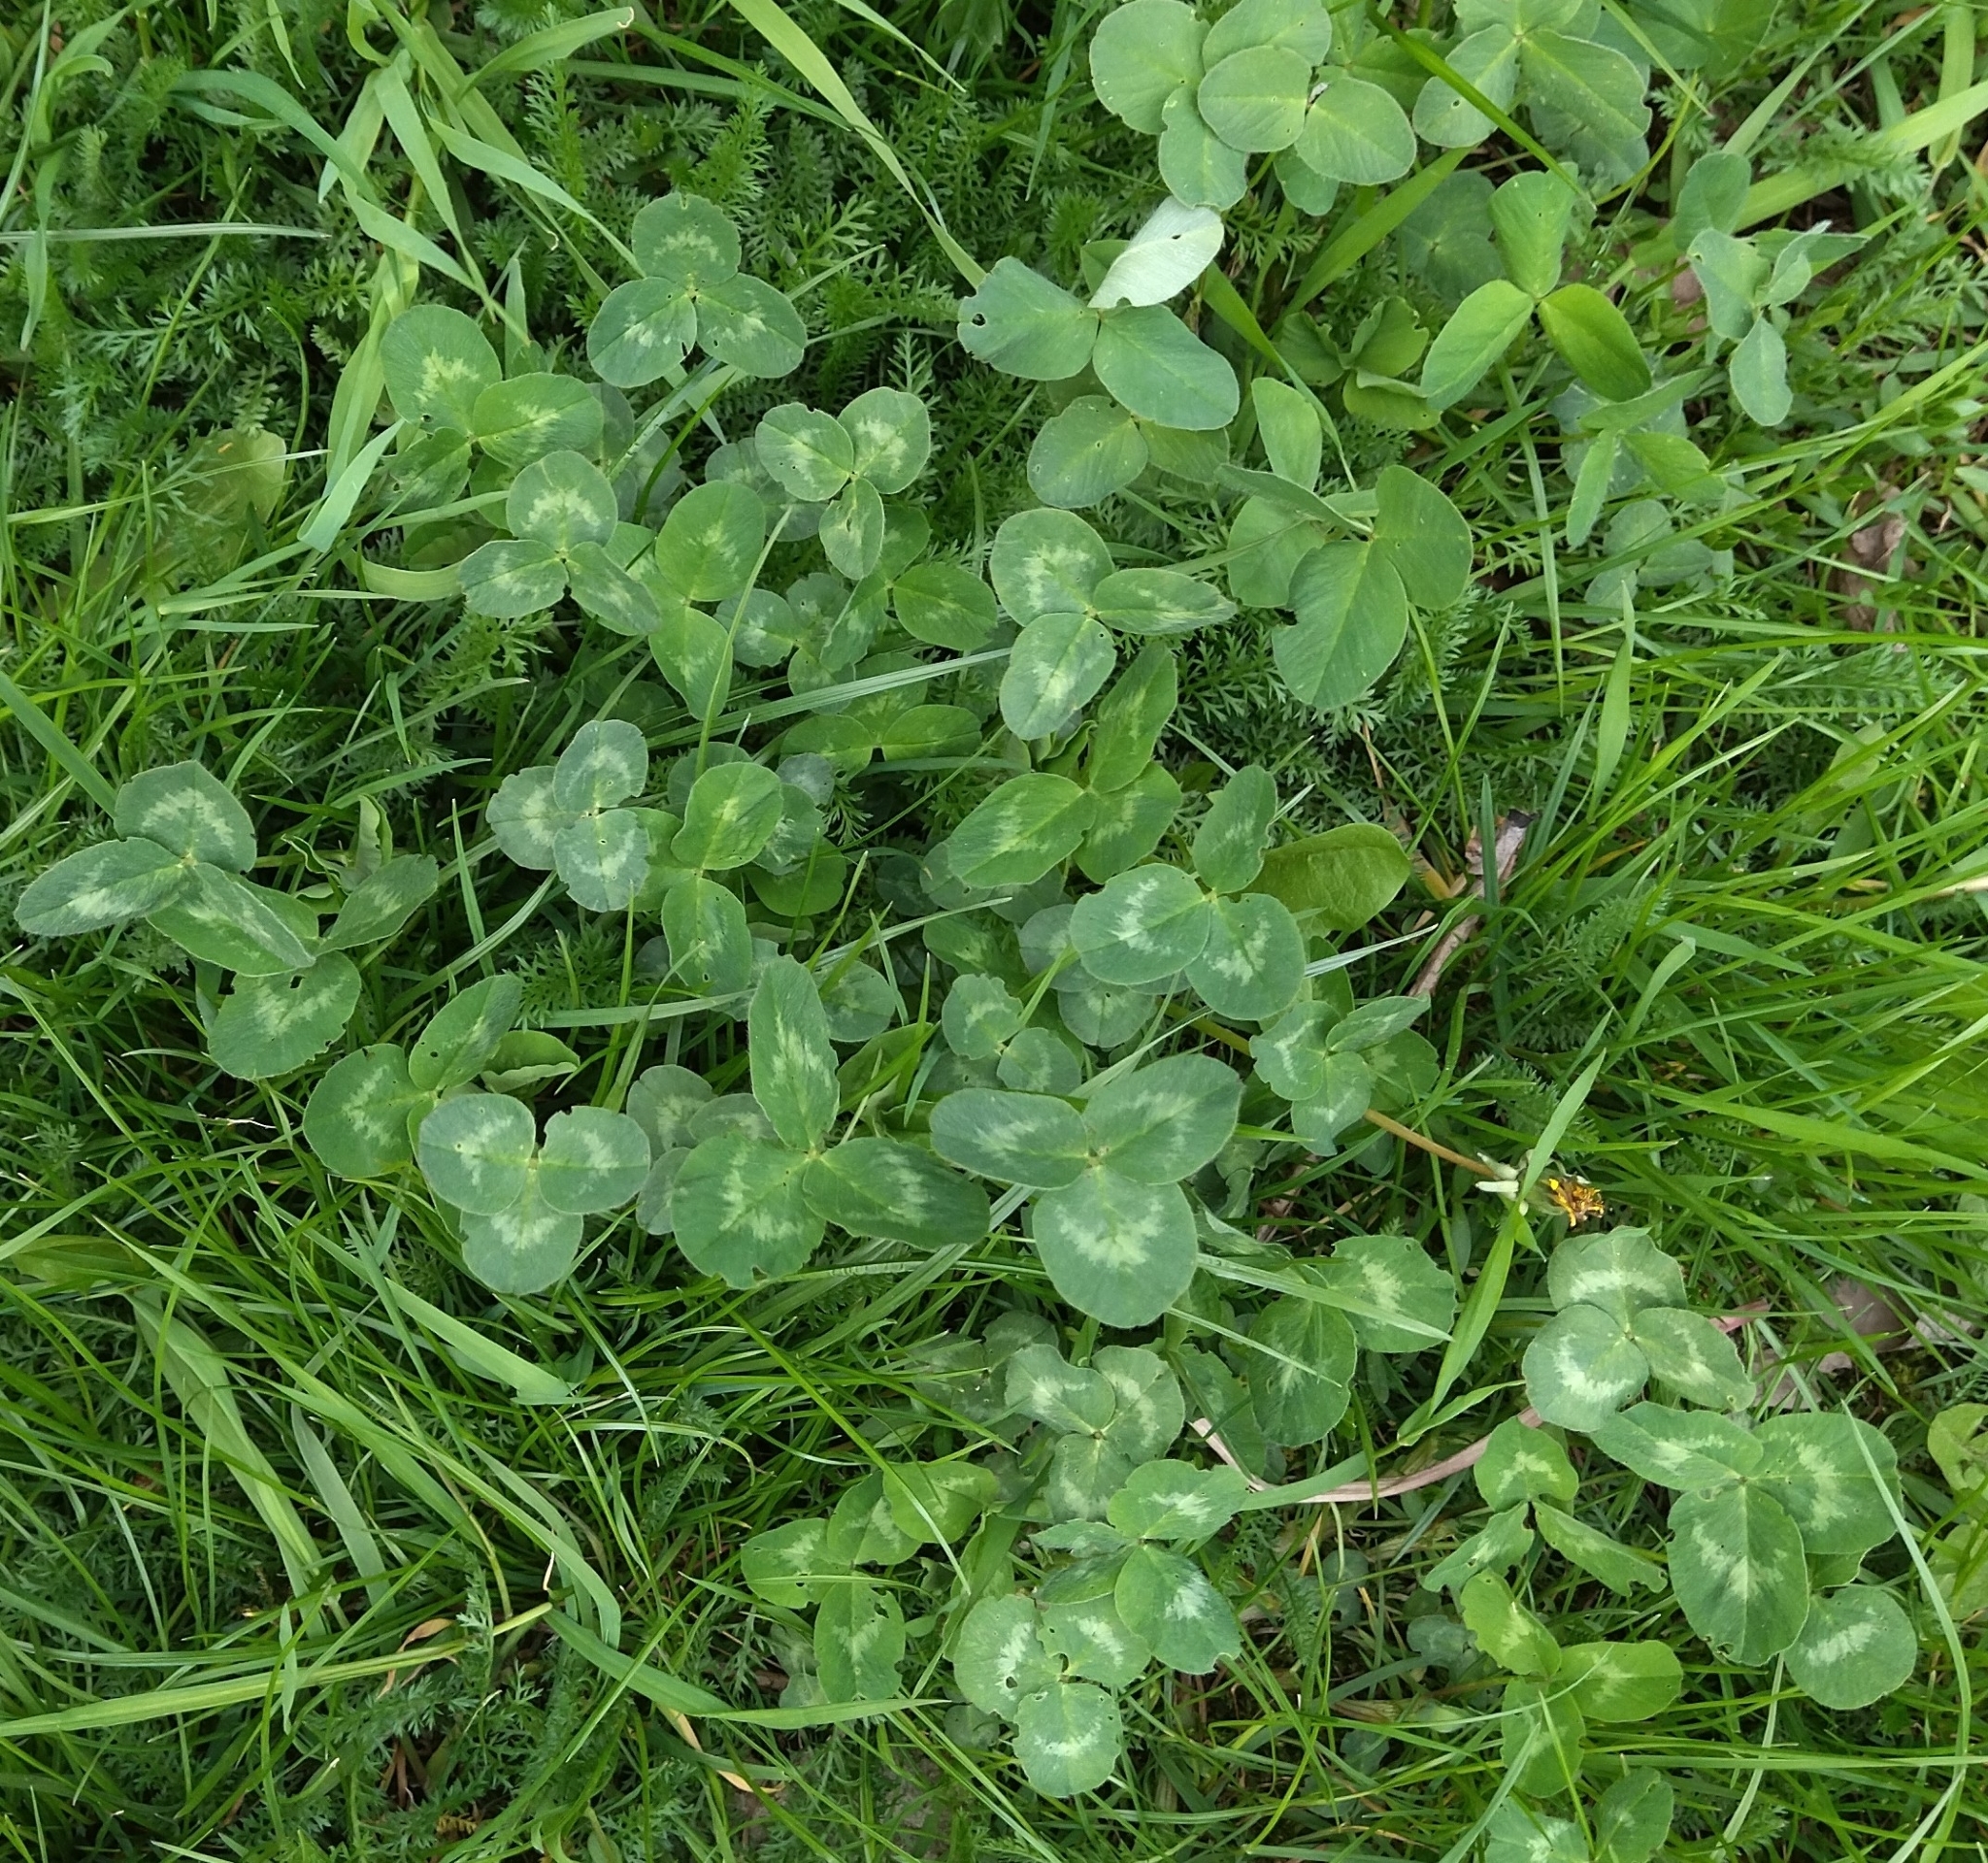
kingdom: Plantae
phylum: Tracheophyta
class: Magnoliopsida
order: Fabales
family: Fabaceae
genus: Trifolium
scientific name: Trifolium pratense
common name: Red clover
